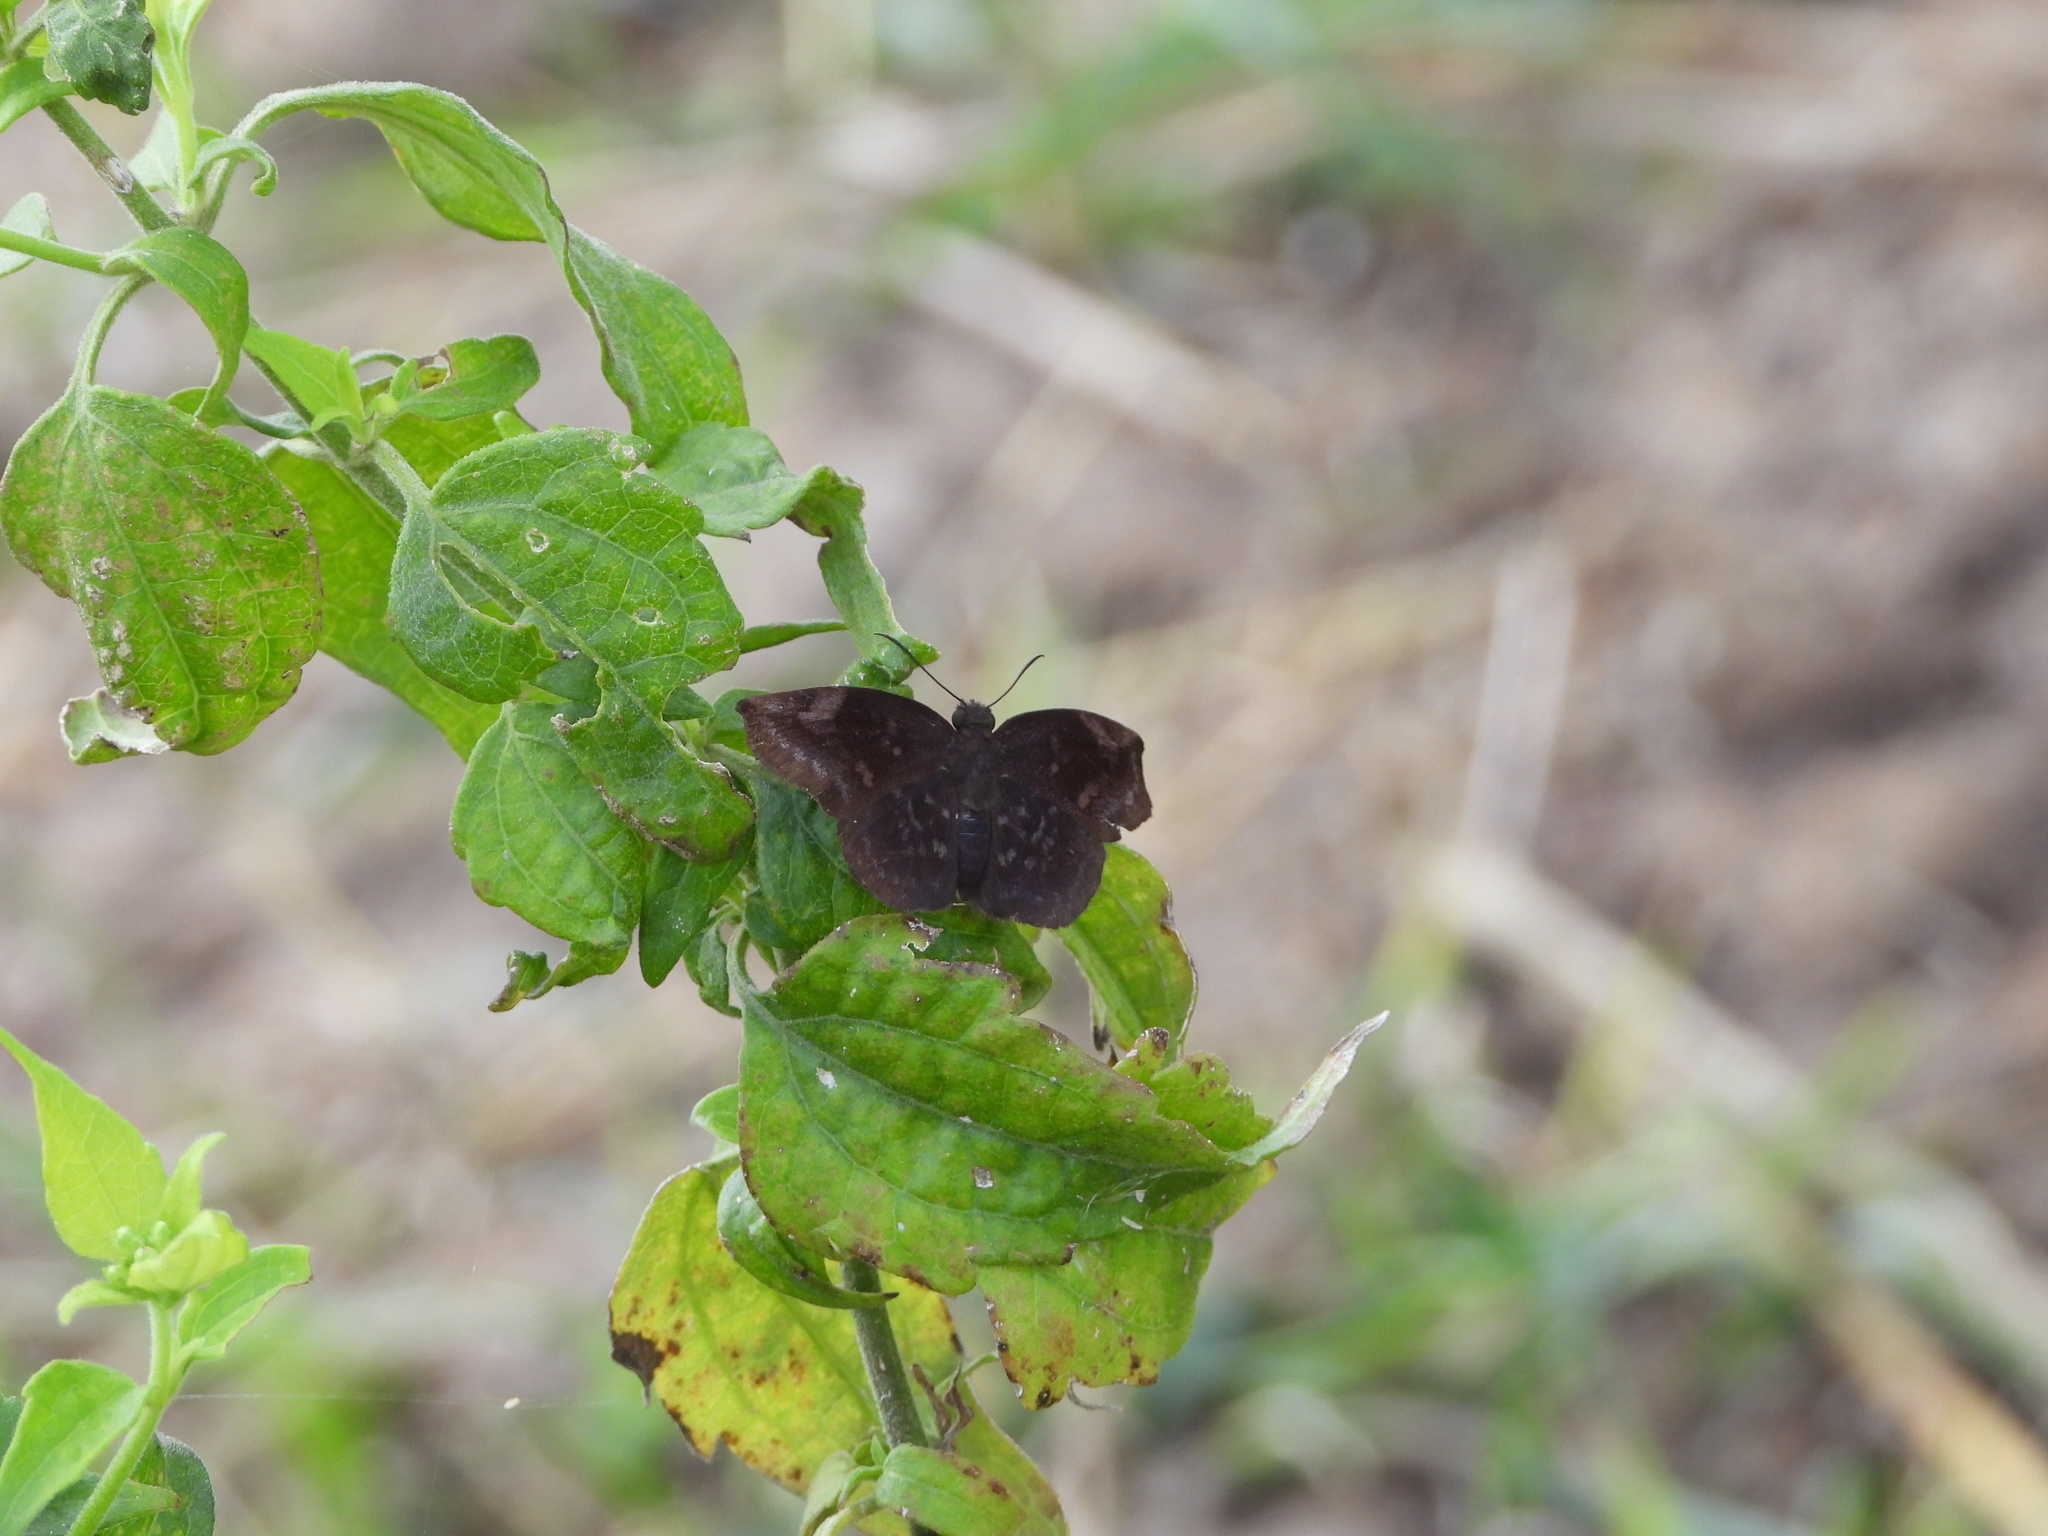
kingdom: Animalia
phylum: Arthropoda
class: Insecta
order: Lepidoptera
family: Hesperiidae
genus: Achlyodes
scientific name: Achlyodes thraso
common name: Sickle-winged skipper
